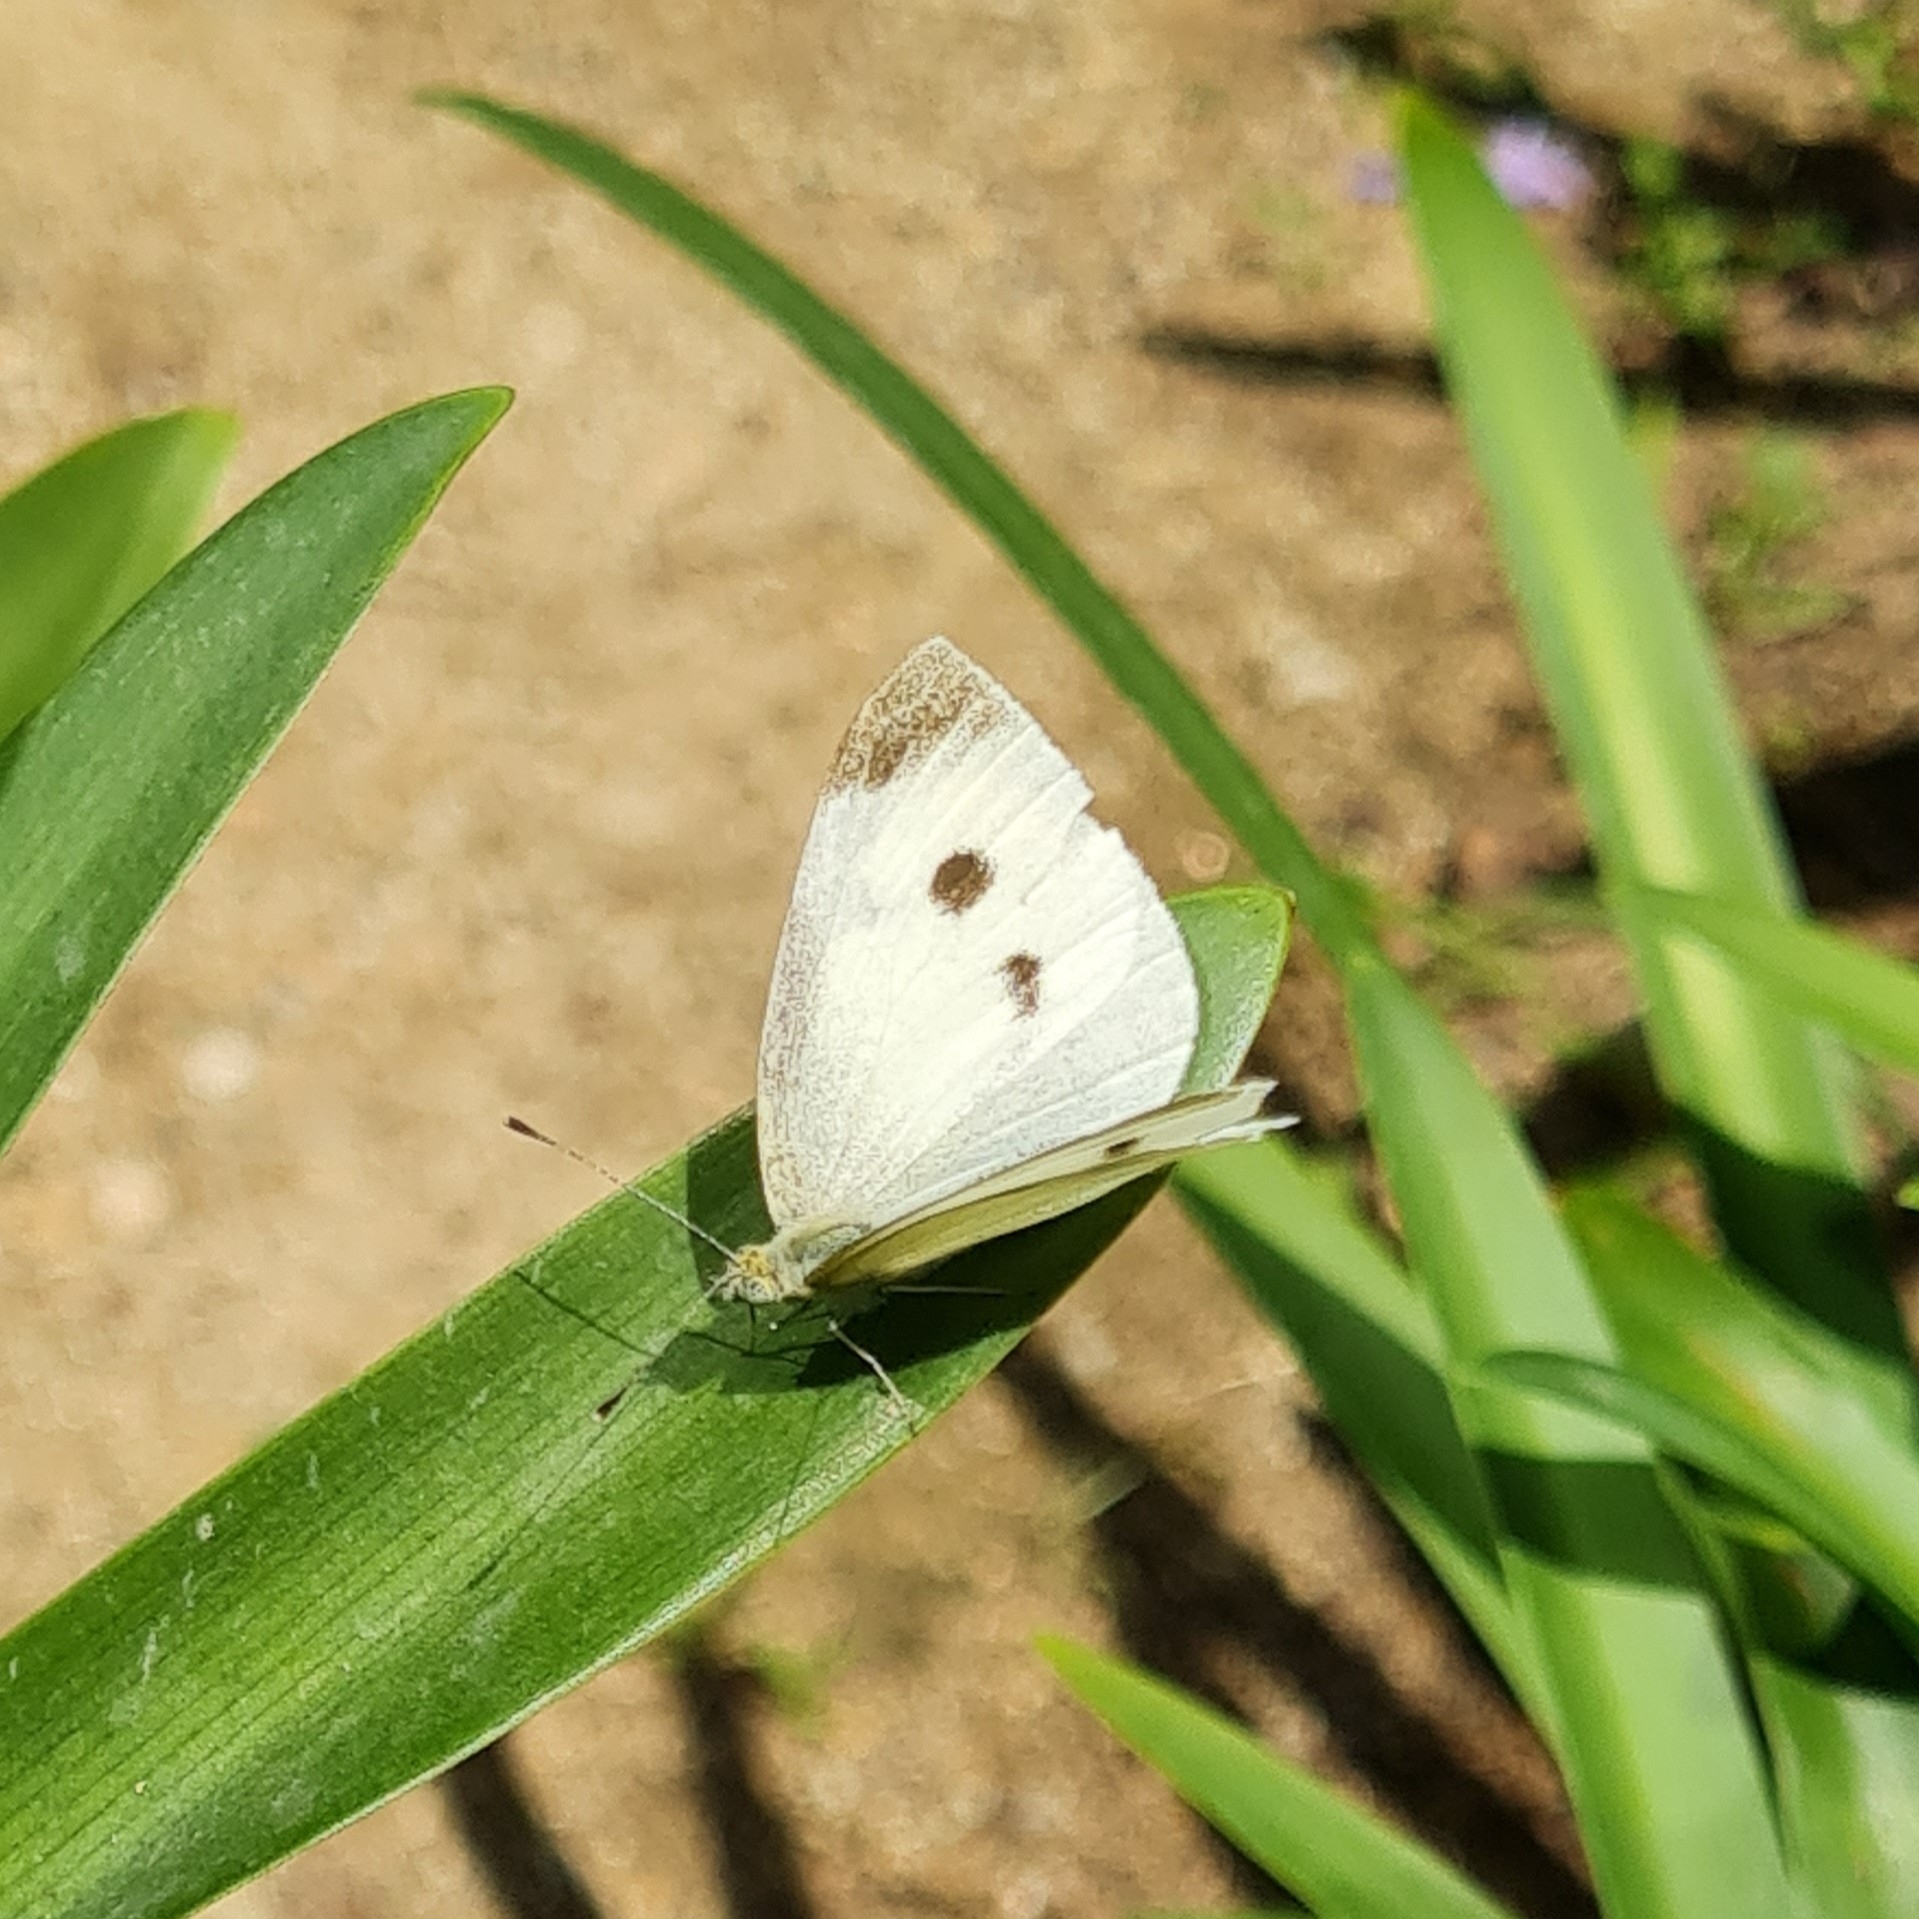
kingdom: Animalia
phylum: Arthropoda
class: Insecta
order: Lepidoptera
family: Pieridae
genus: Pieris
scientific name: Pieris rapae
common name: Small white
